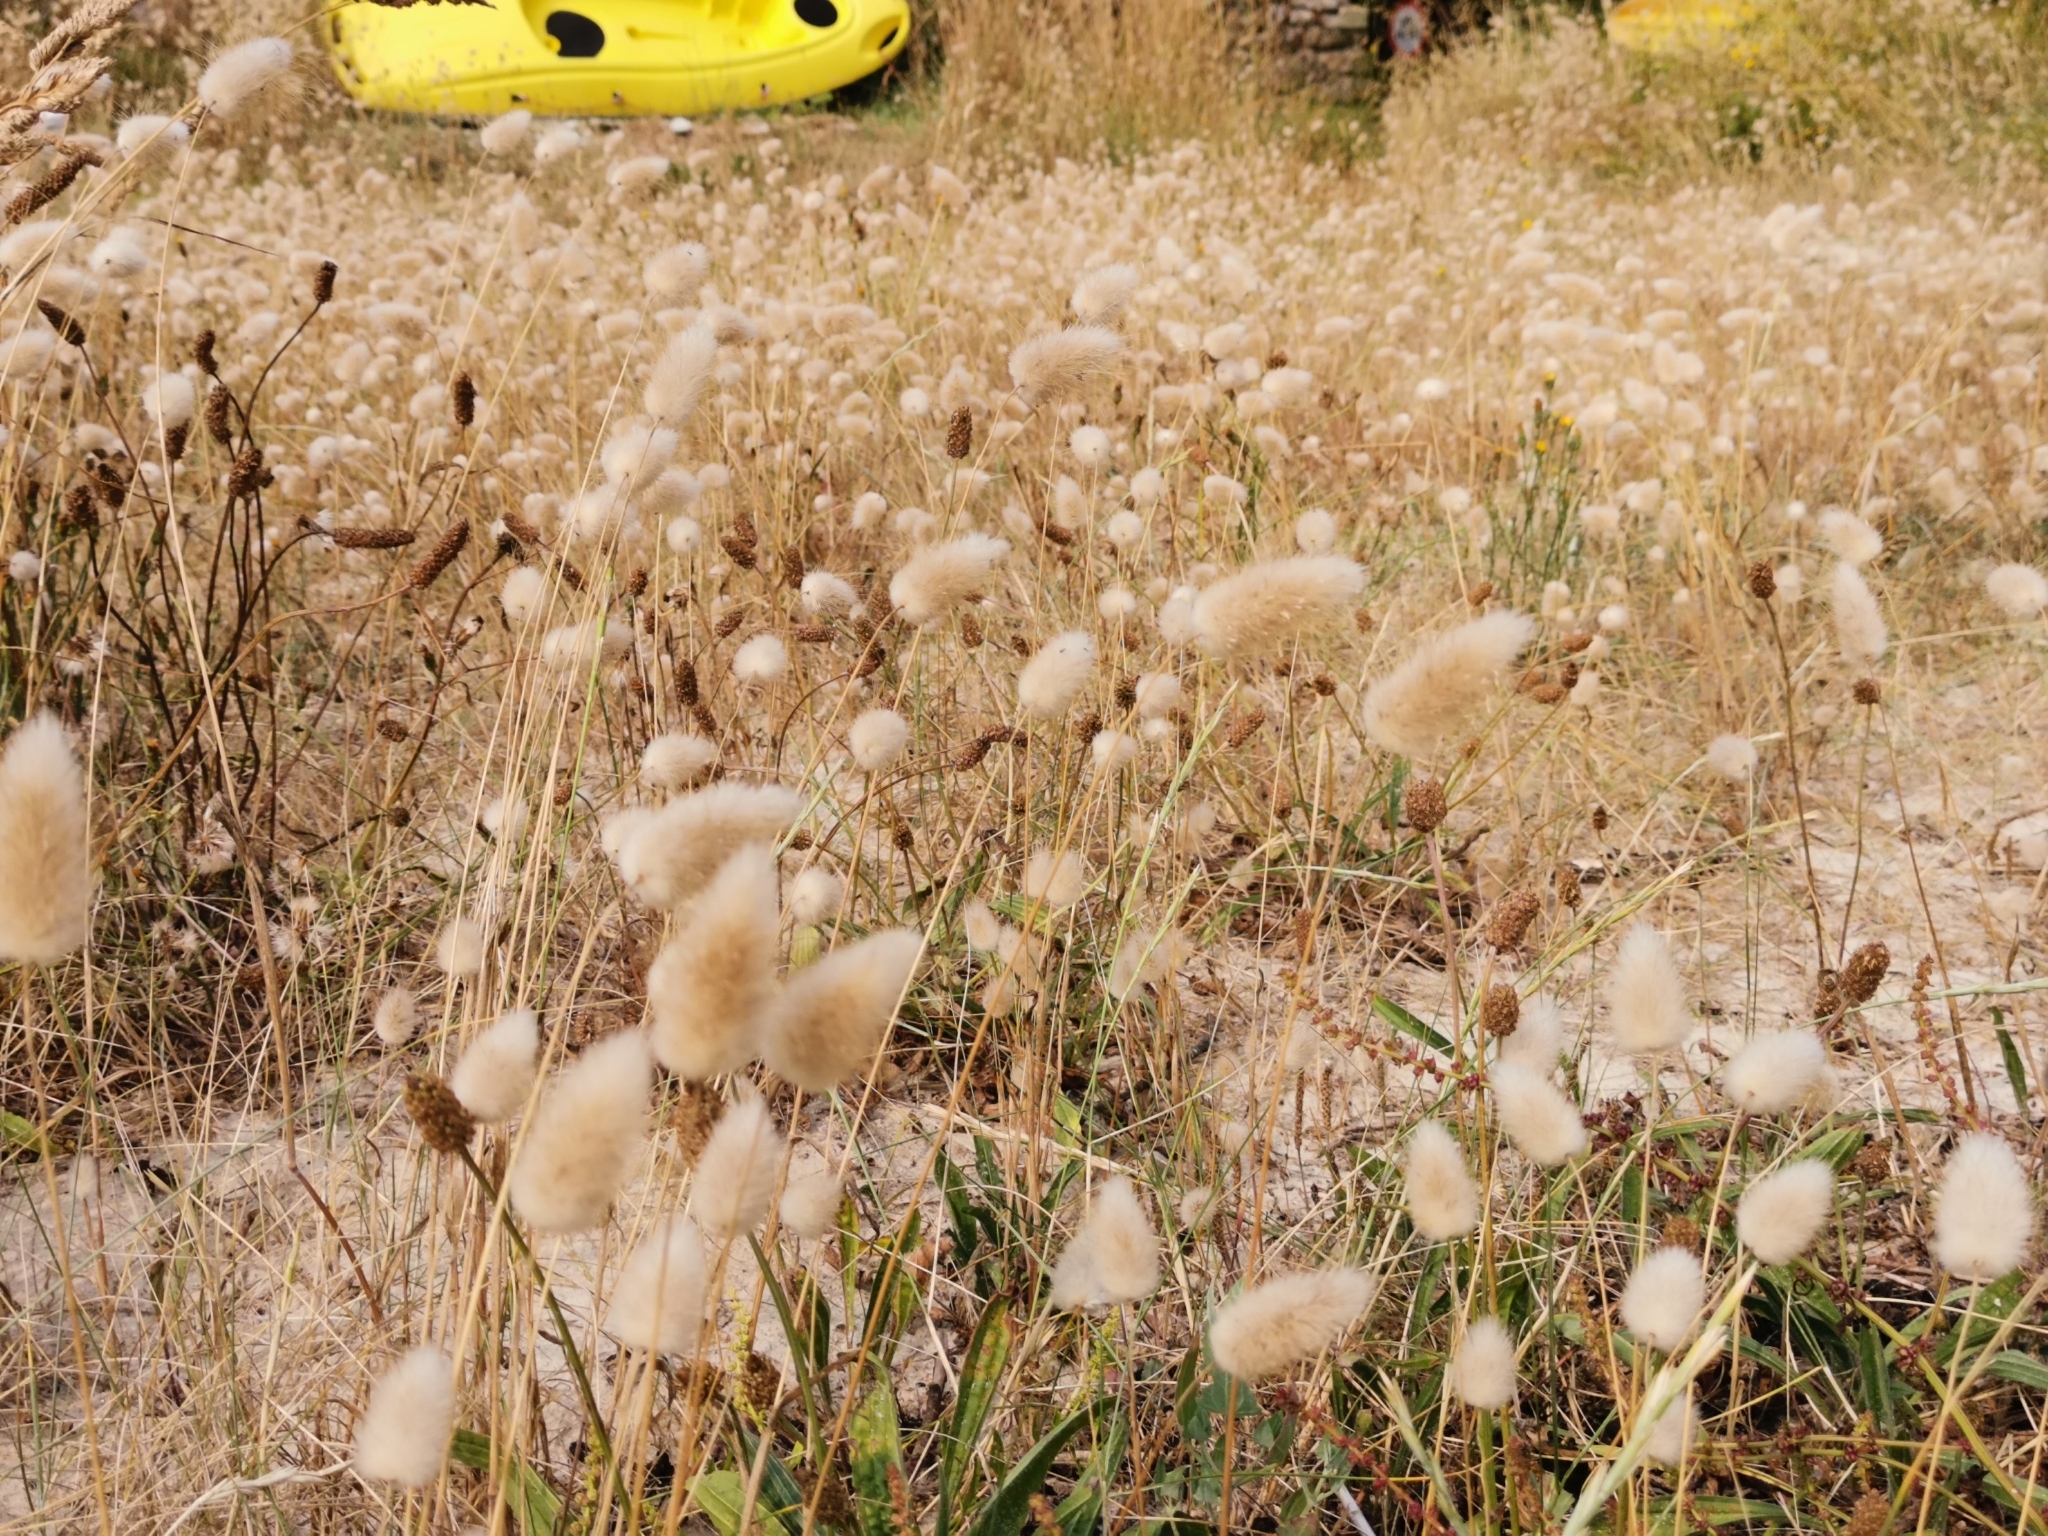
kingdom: Plantae
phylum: Tracheophyta
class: Liliopsida
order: Poales
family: Poaceae
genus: Lagurus
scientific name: Lagurus ovatus
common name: Hare's-tail
